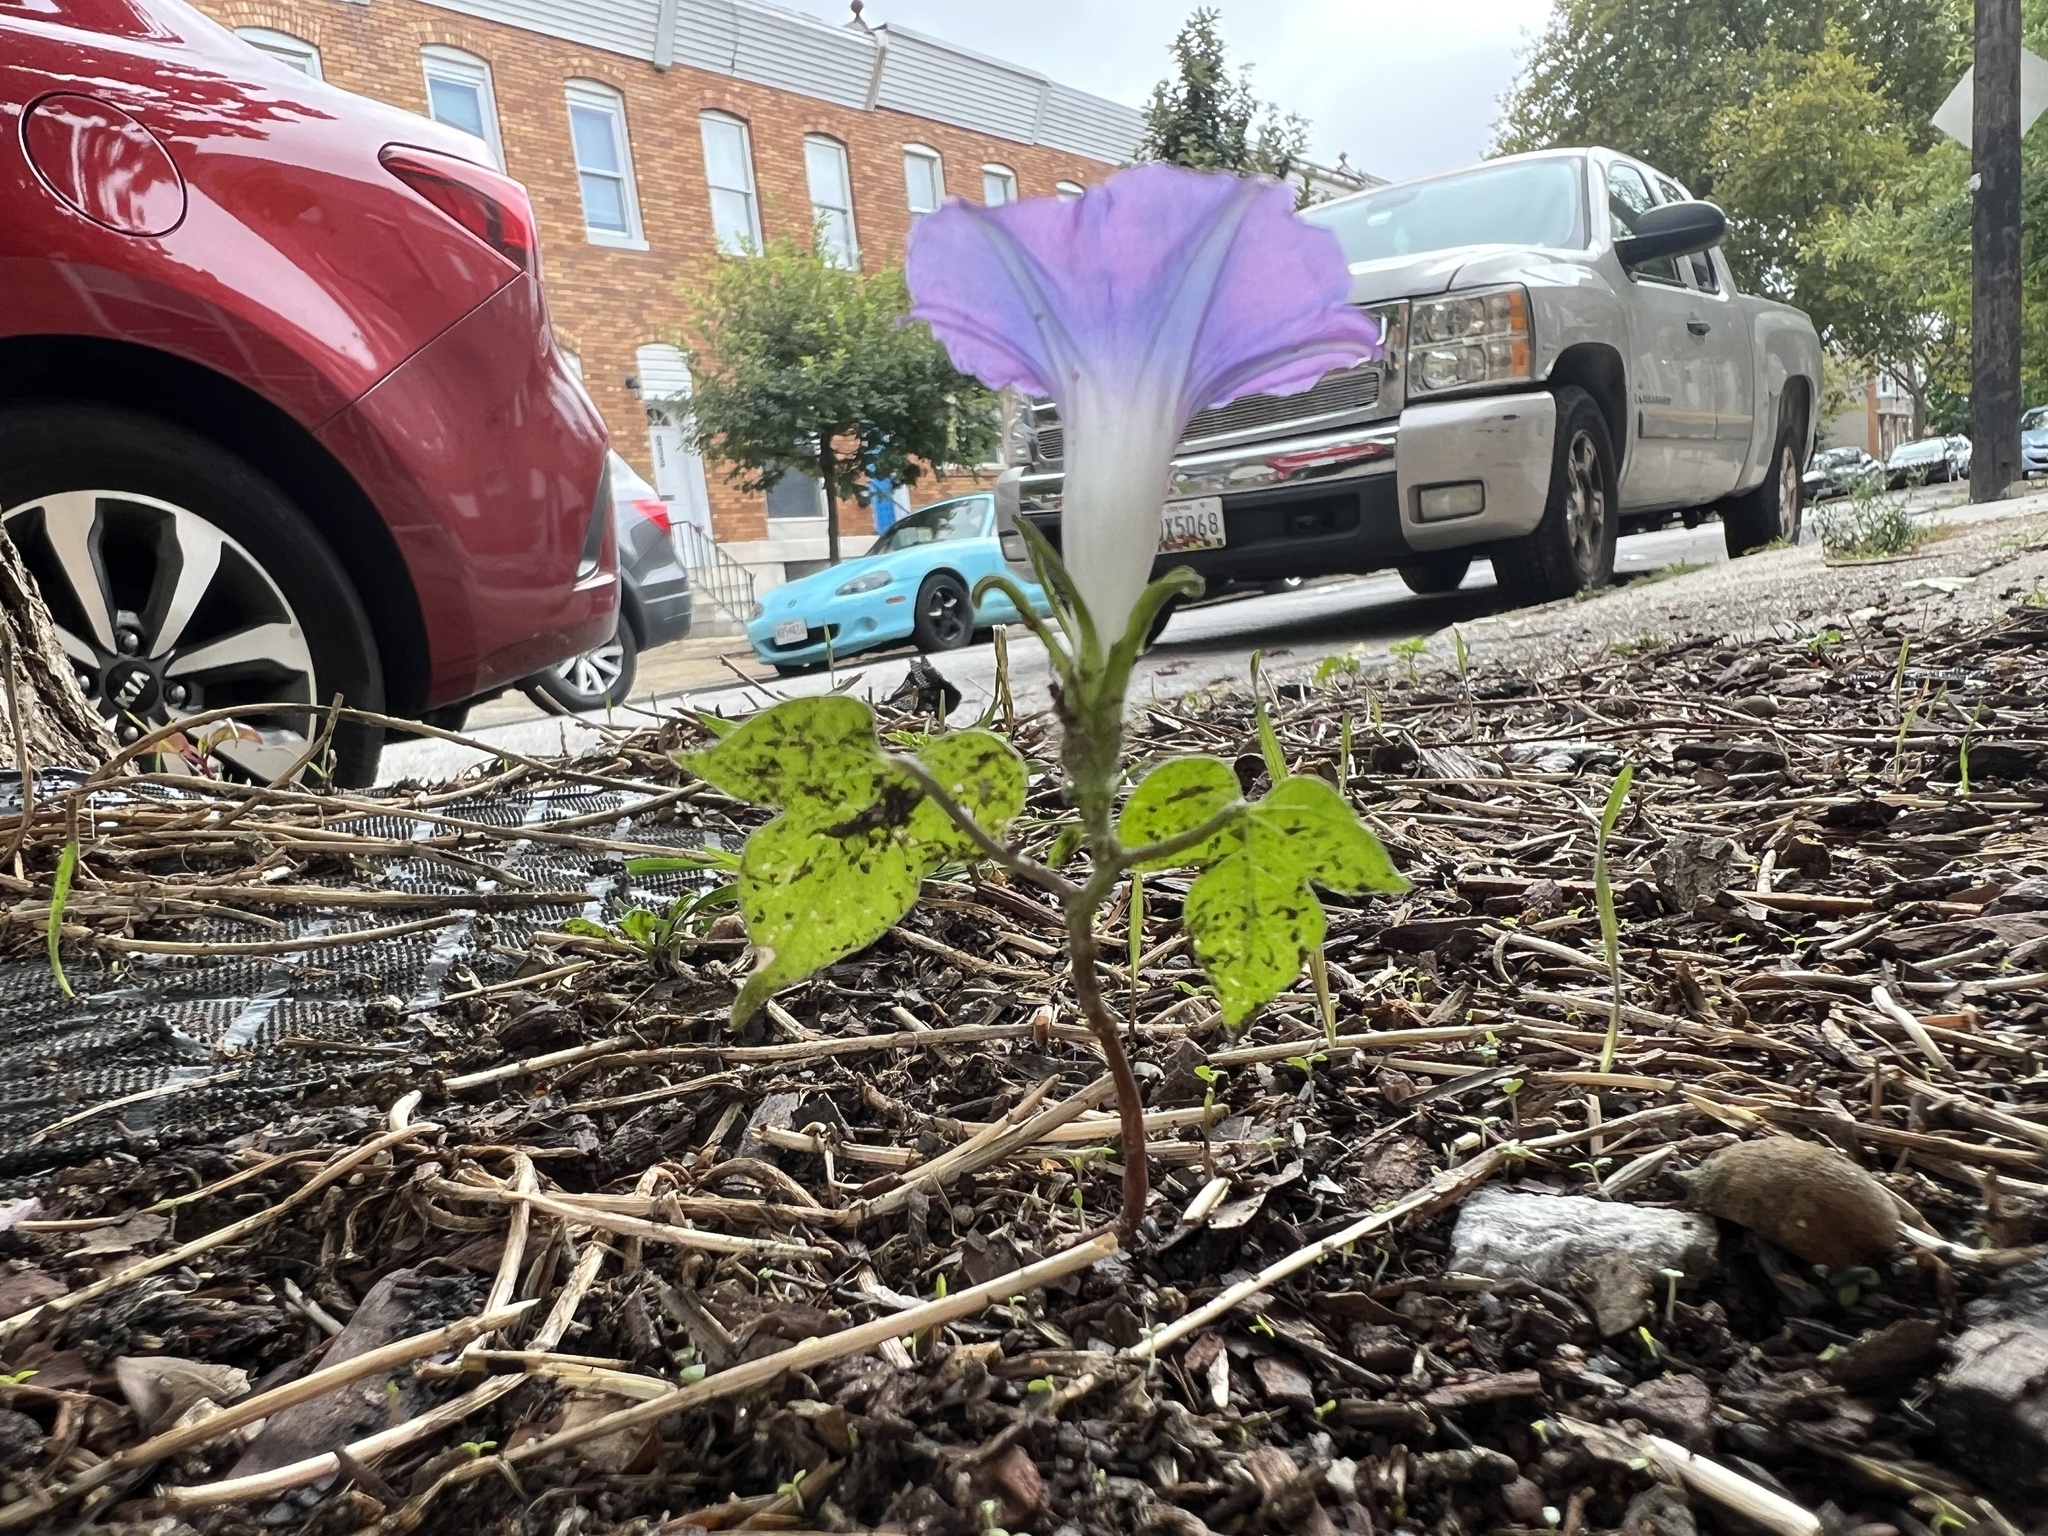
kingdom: Plantae
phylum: Tracheophyta
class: Magnoliopsida
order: Solanales
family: Convolvulaceae
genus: Ipomoea
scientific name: Ipomoea hederacea
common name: Ivy-leaved morning-glory
